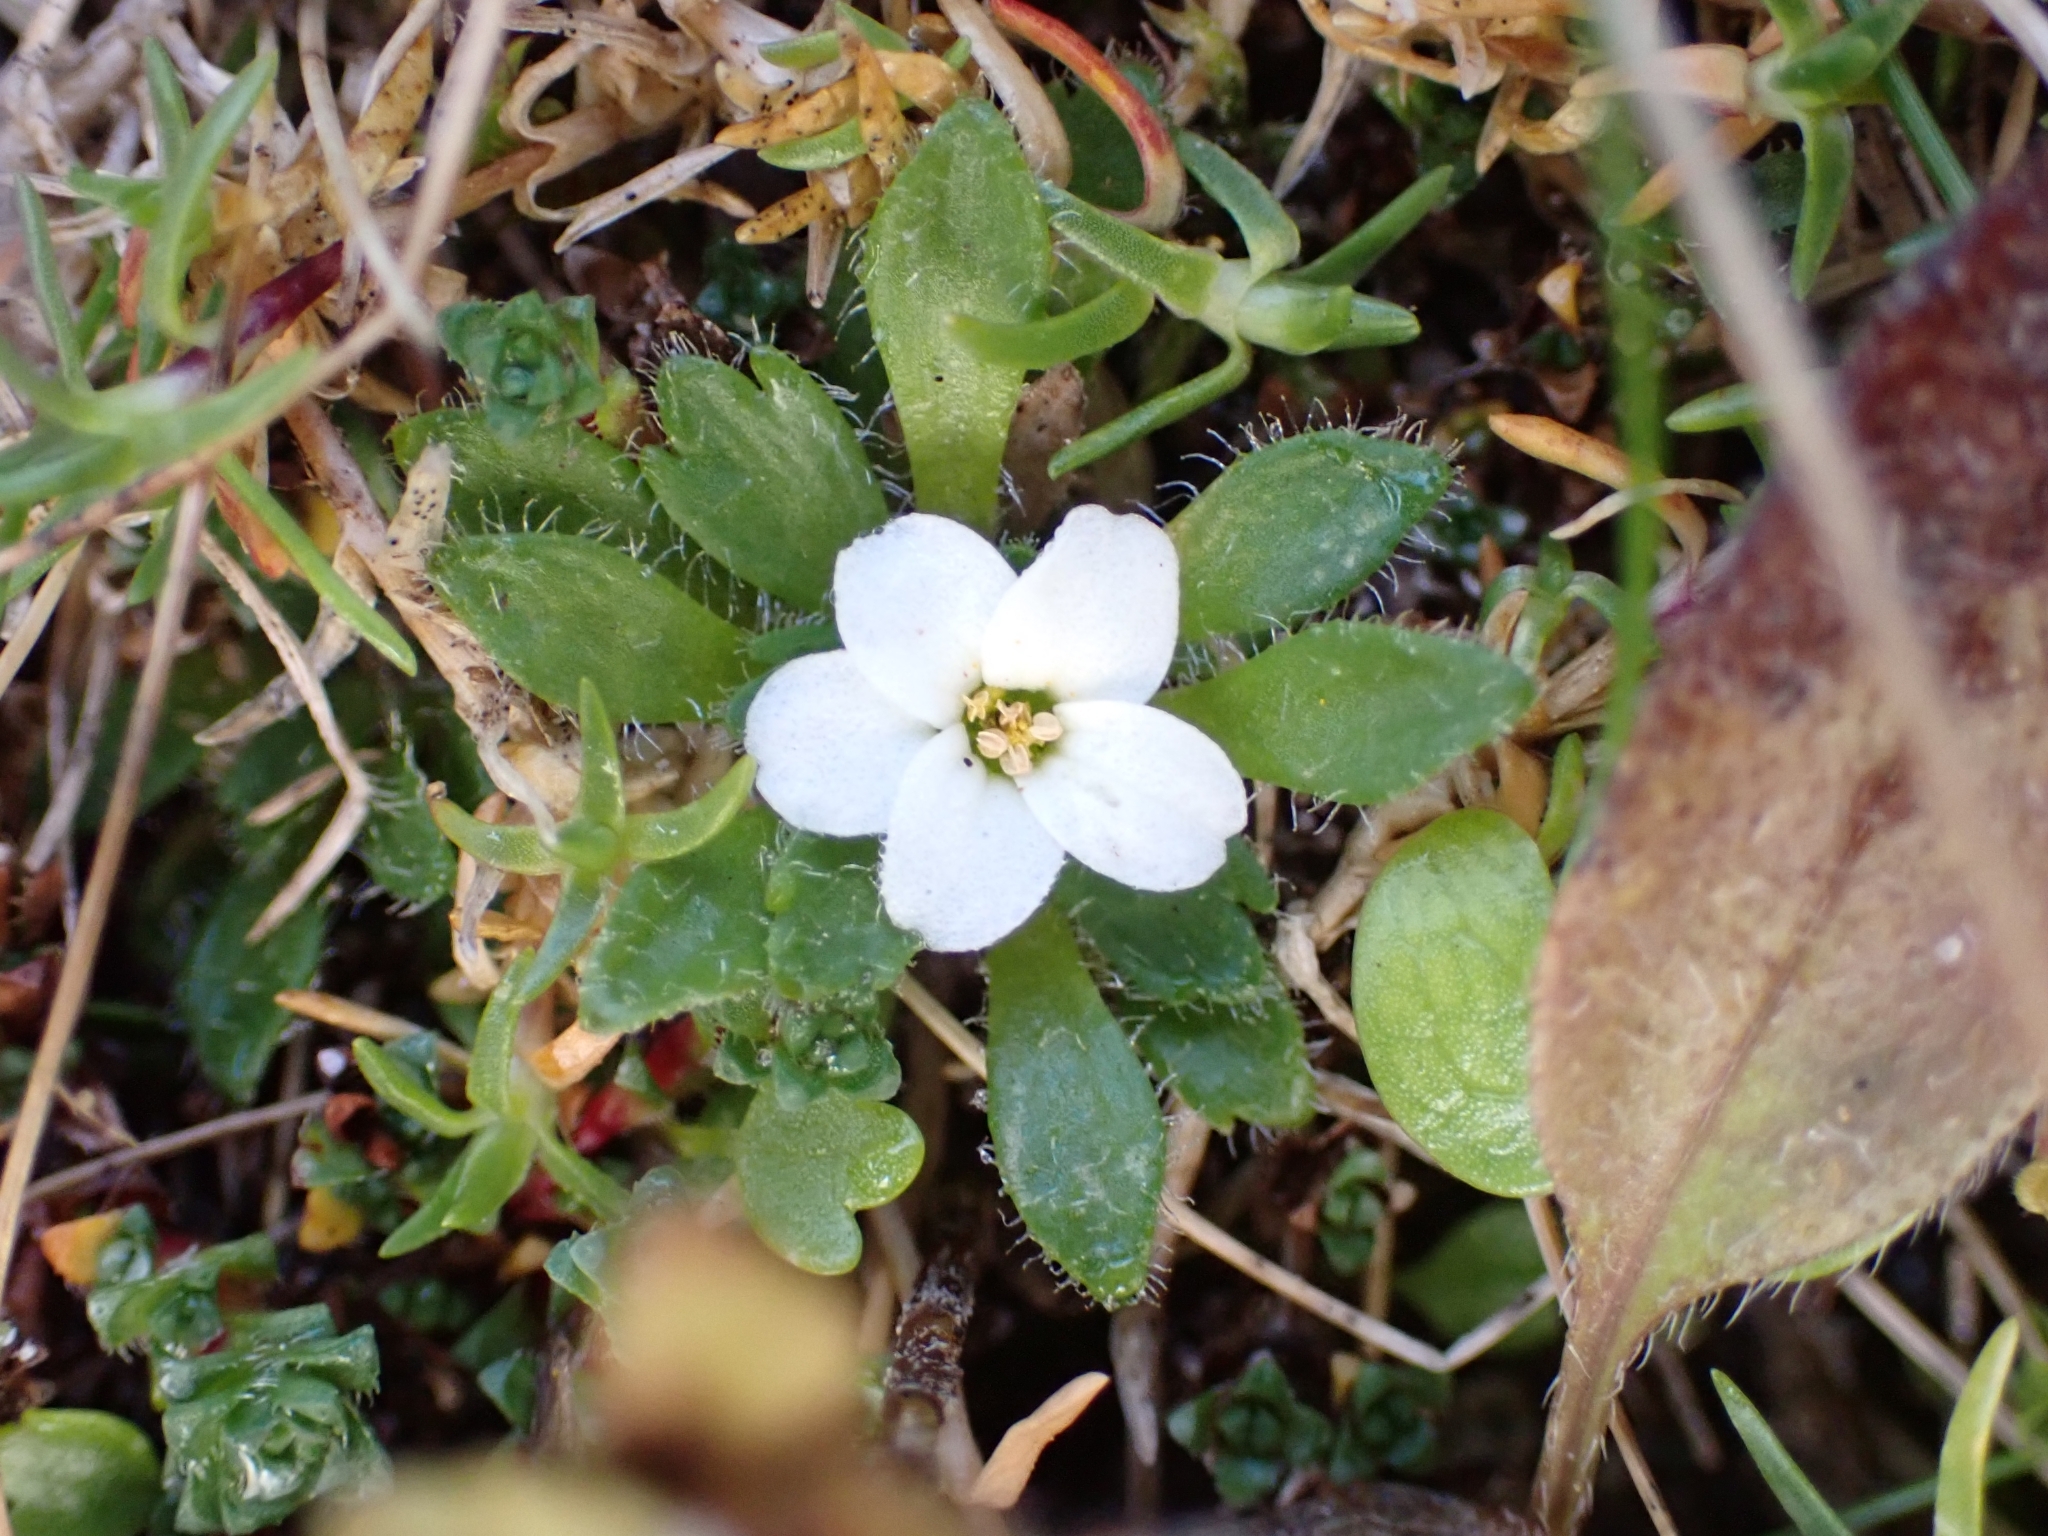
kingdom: Plantae
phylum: Tracheophyta
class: Magnoliopsida
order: Saxifragales
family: Saxifragaceae
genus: Saxifraga
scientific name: Saxifraga androsacea
